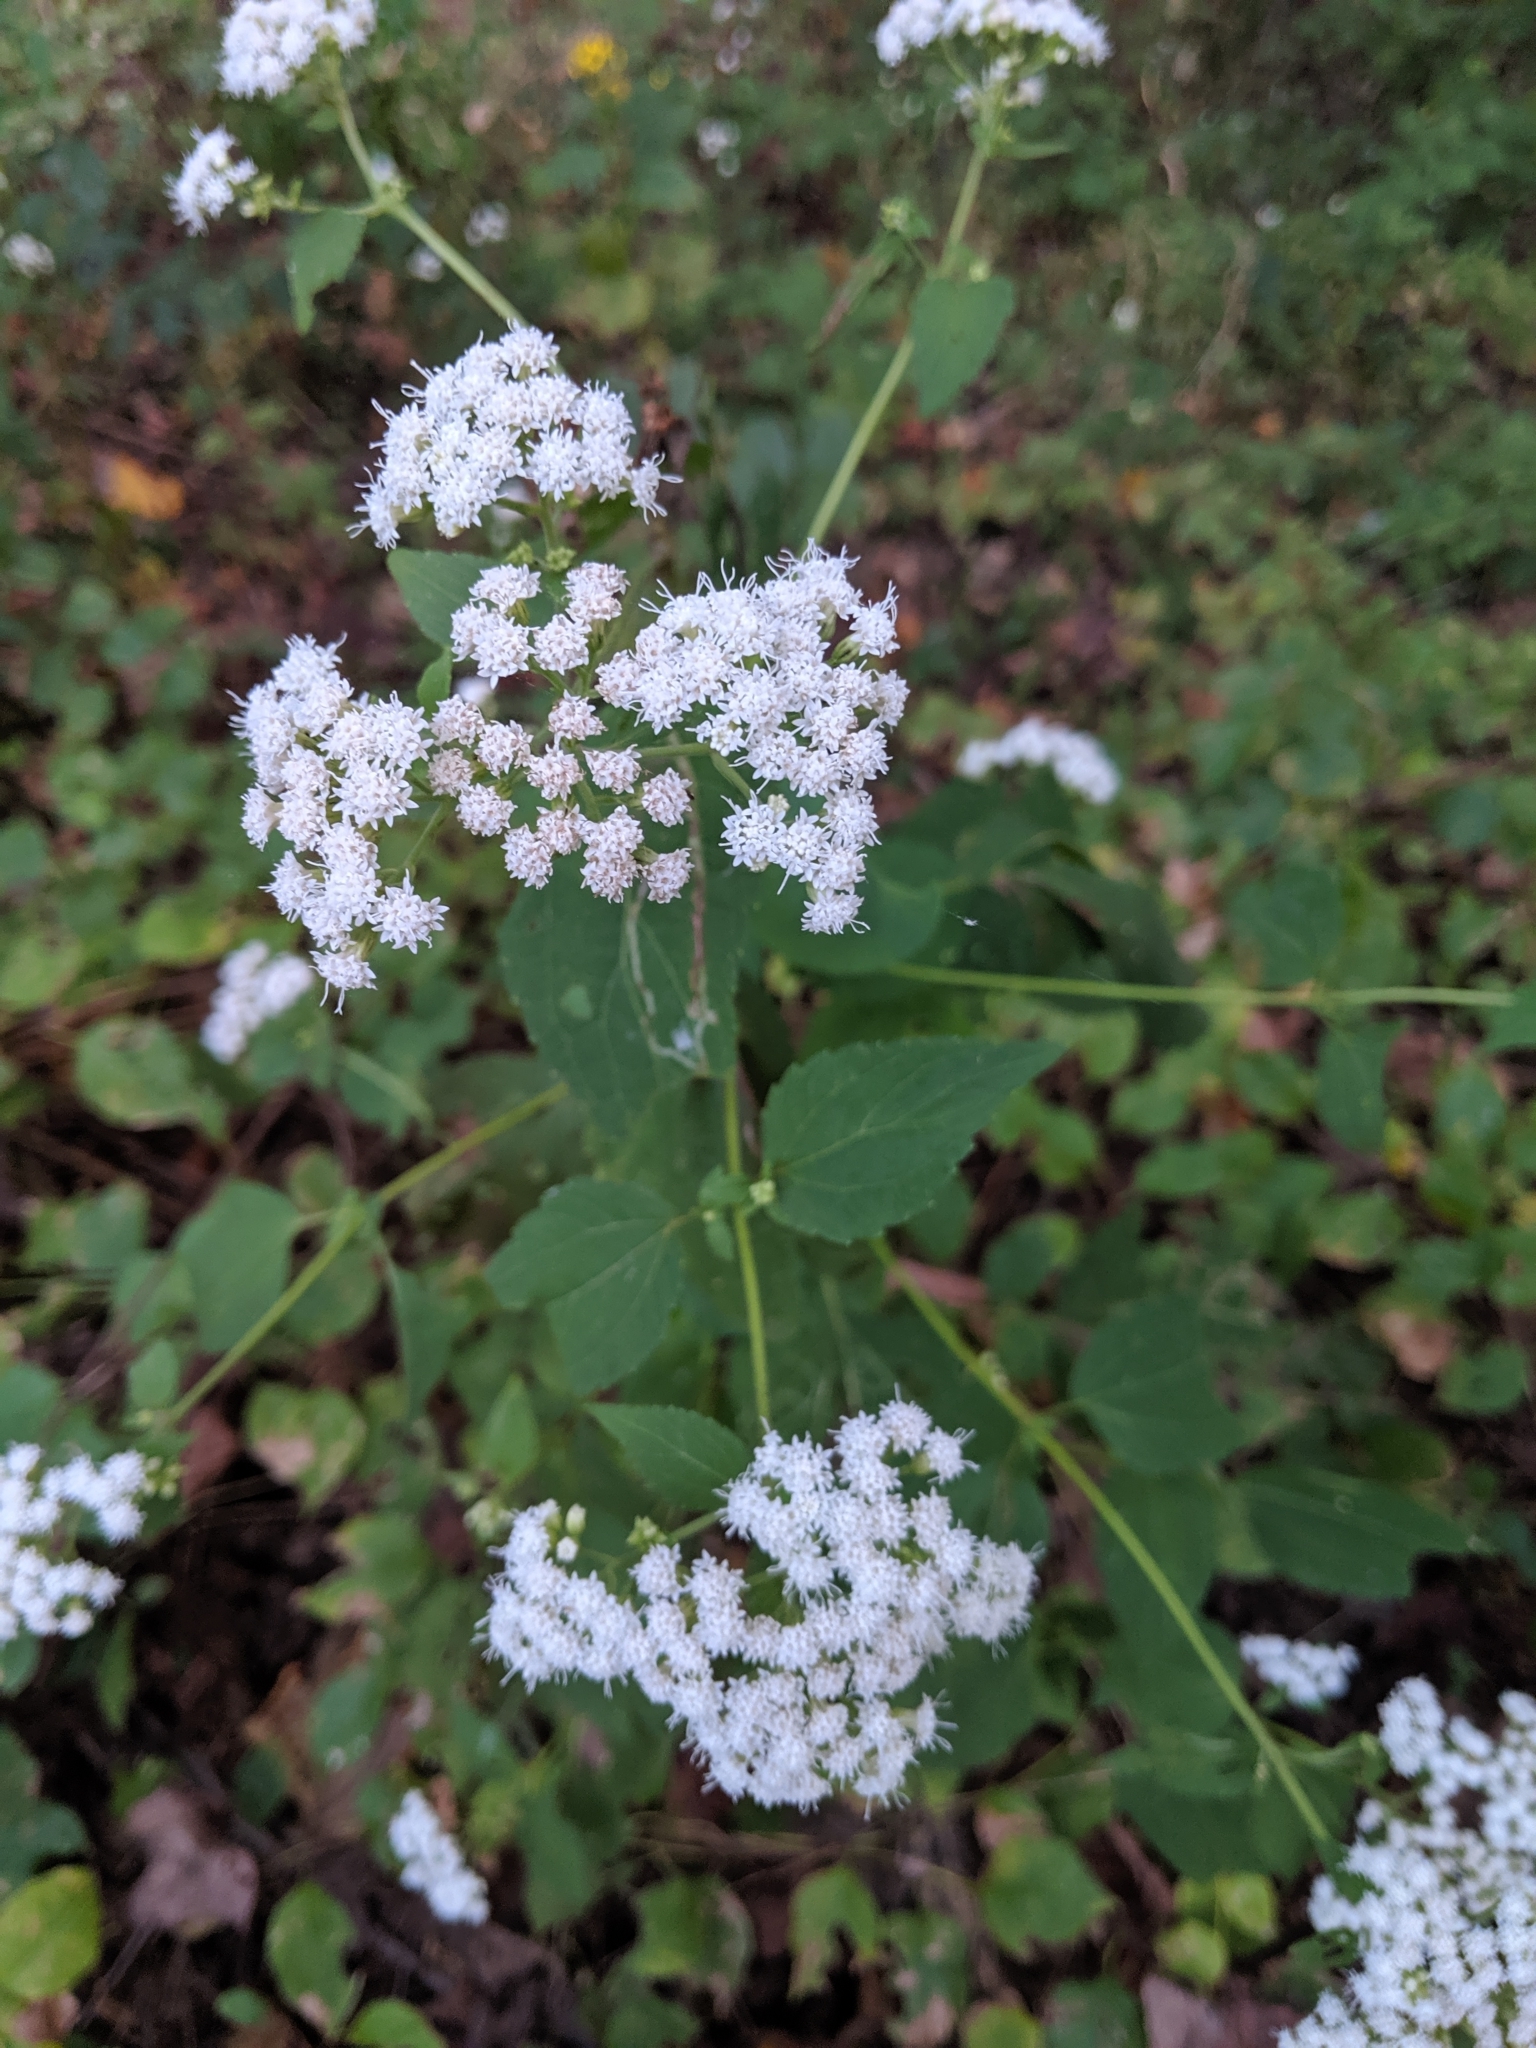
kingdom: Plantae
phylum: Tracheophyta
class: Magnoliopsida
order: Asterales
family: Asteraceae
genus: Ageratina
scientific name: Ageratina altissima
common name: White snakeroot
